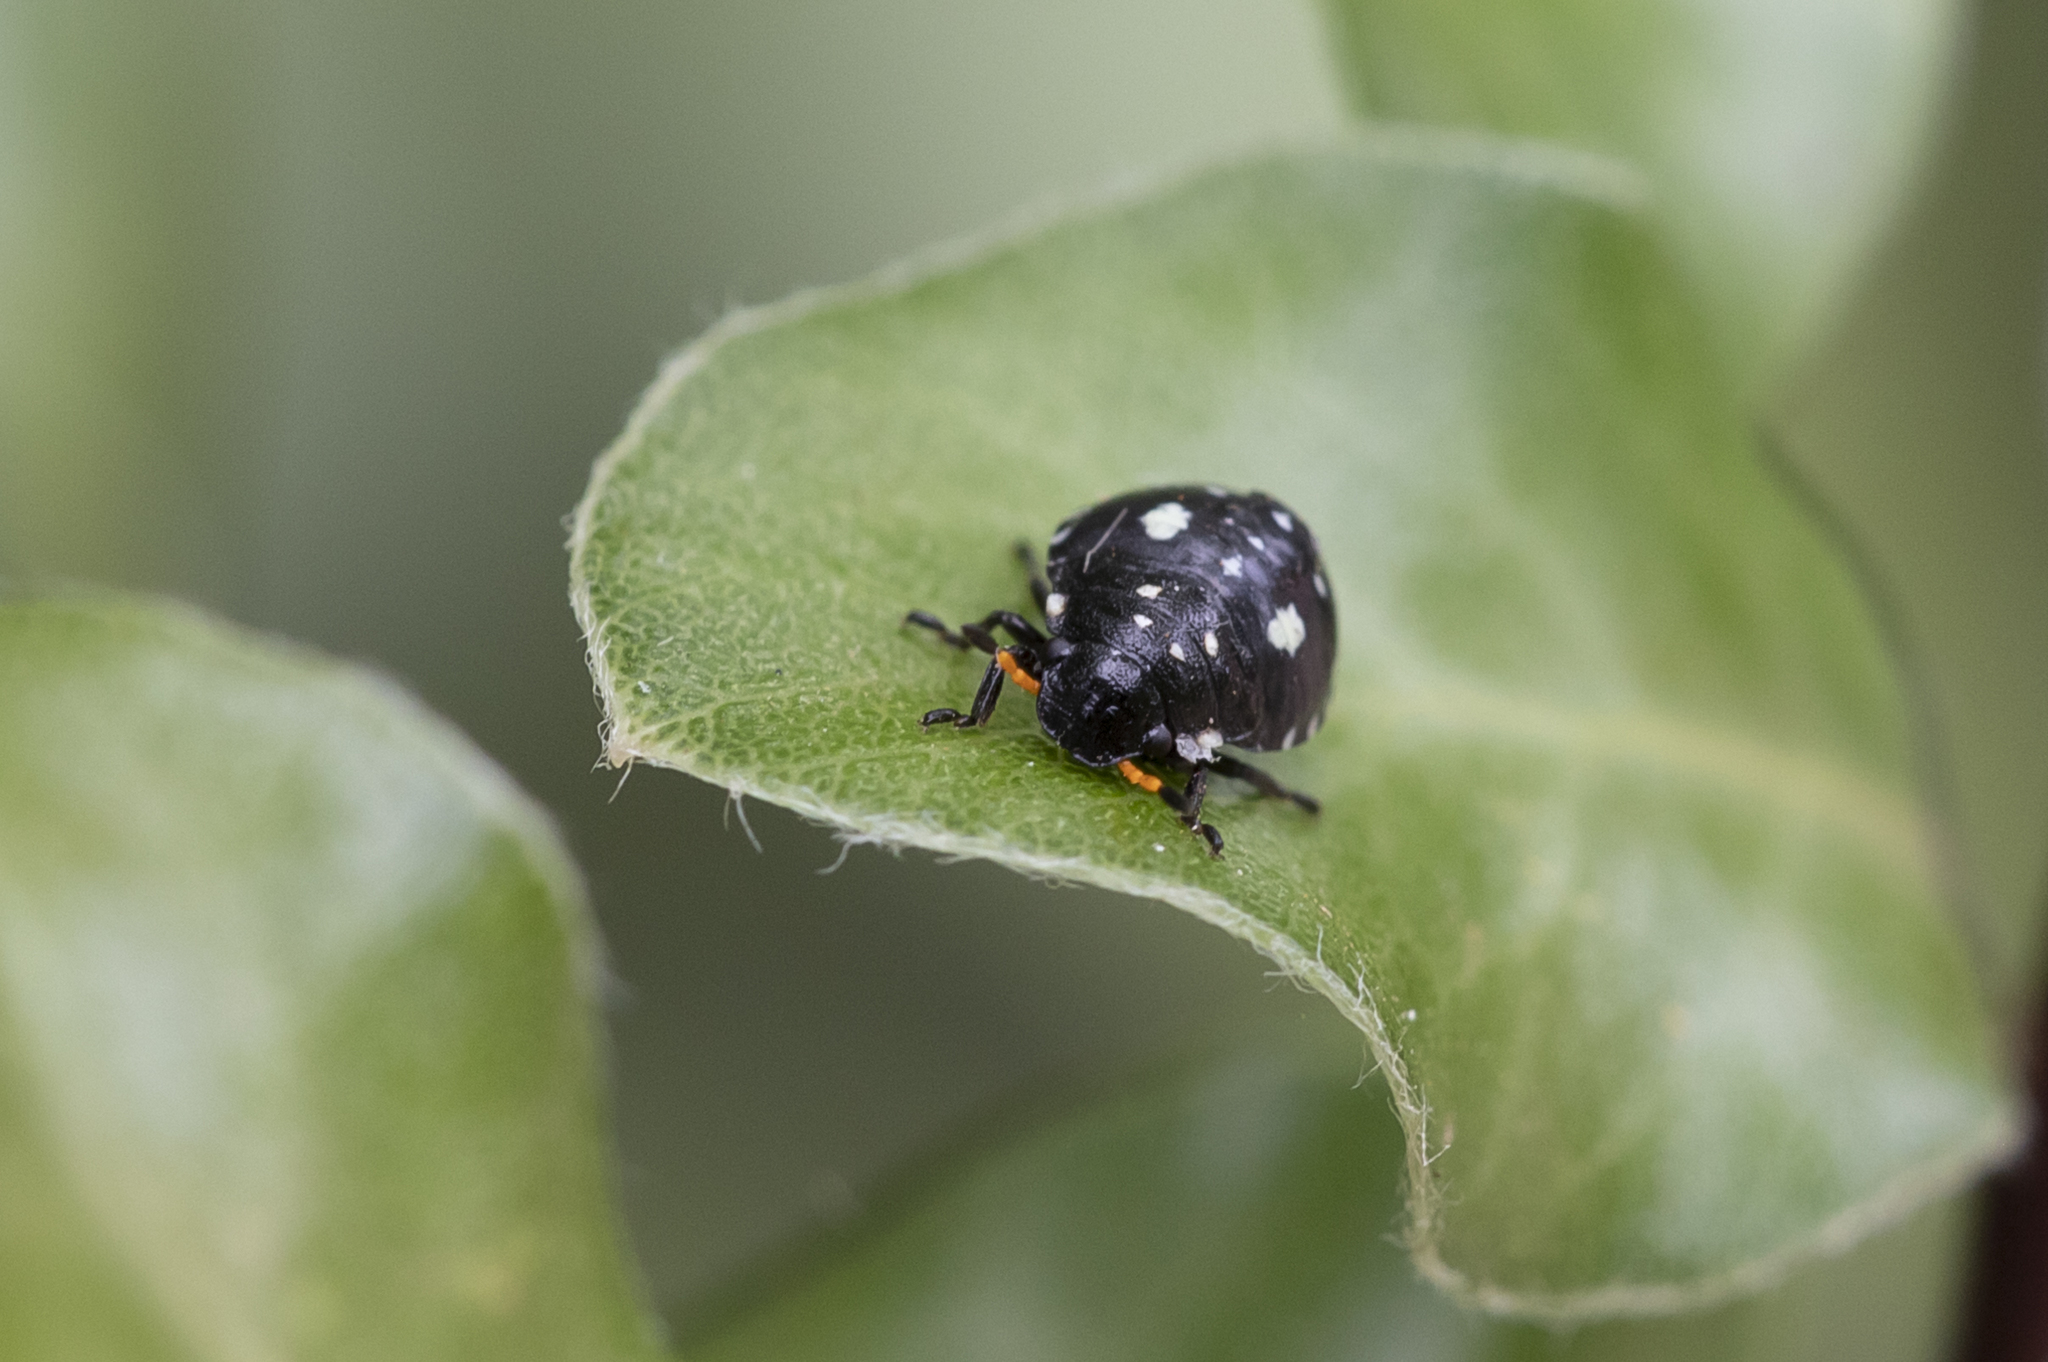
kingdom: Animalia
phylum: Arthropoda
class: Insecta
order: Hemiptera
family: Pentatomidae
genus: Pseudapines
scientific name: Pseudapines
